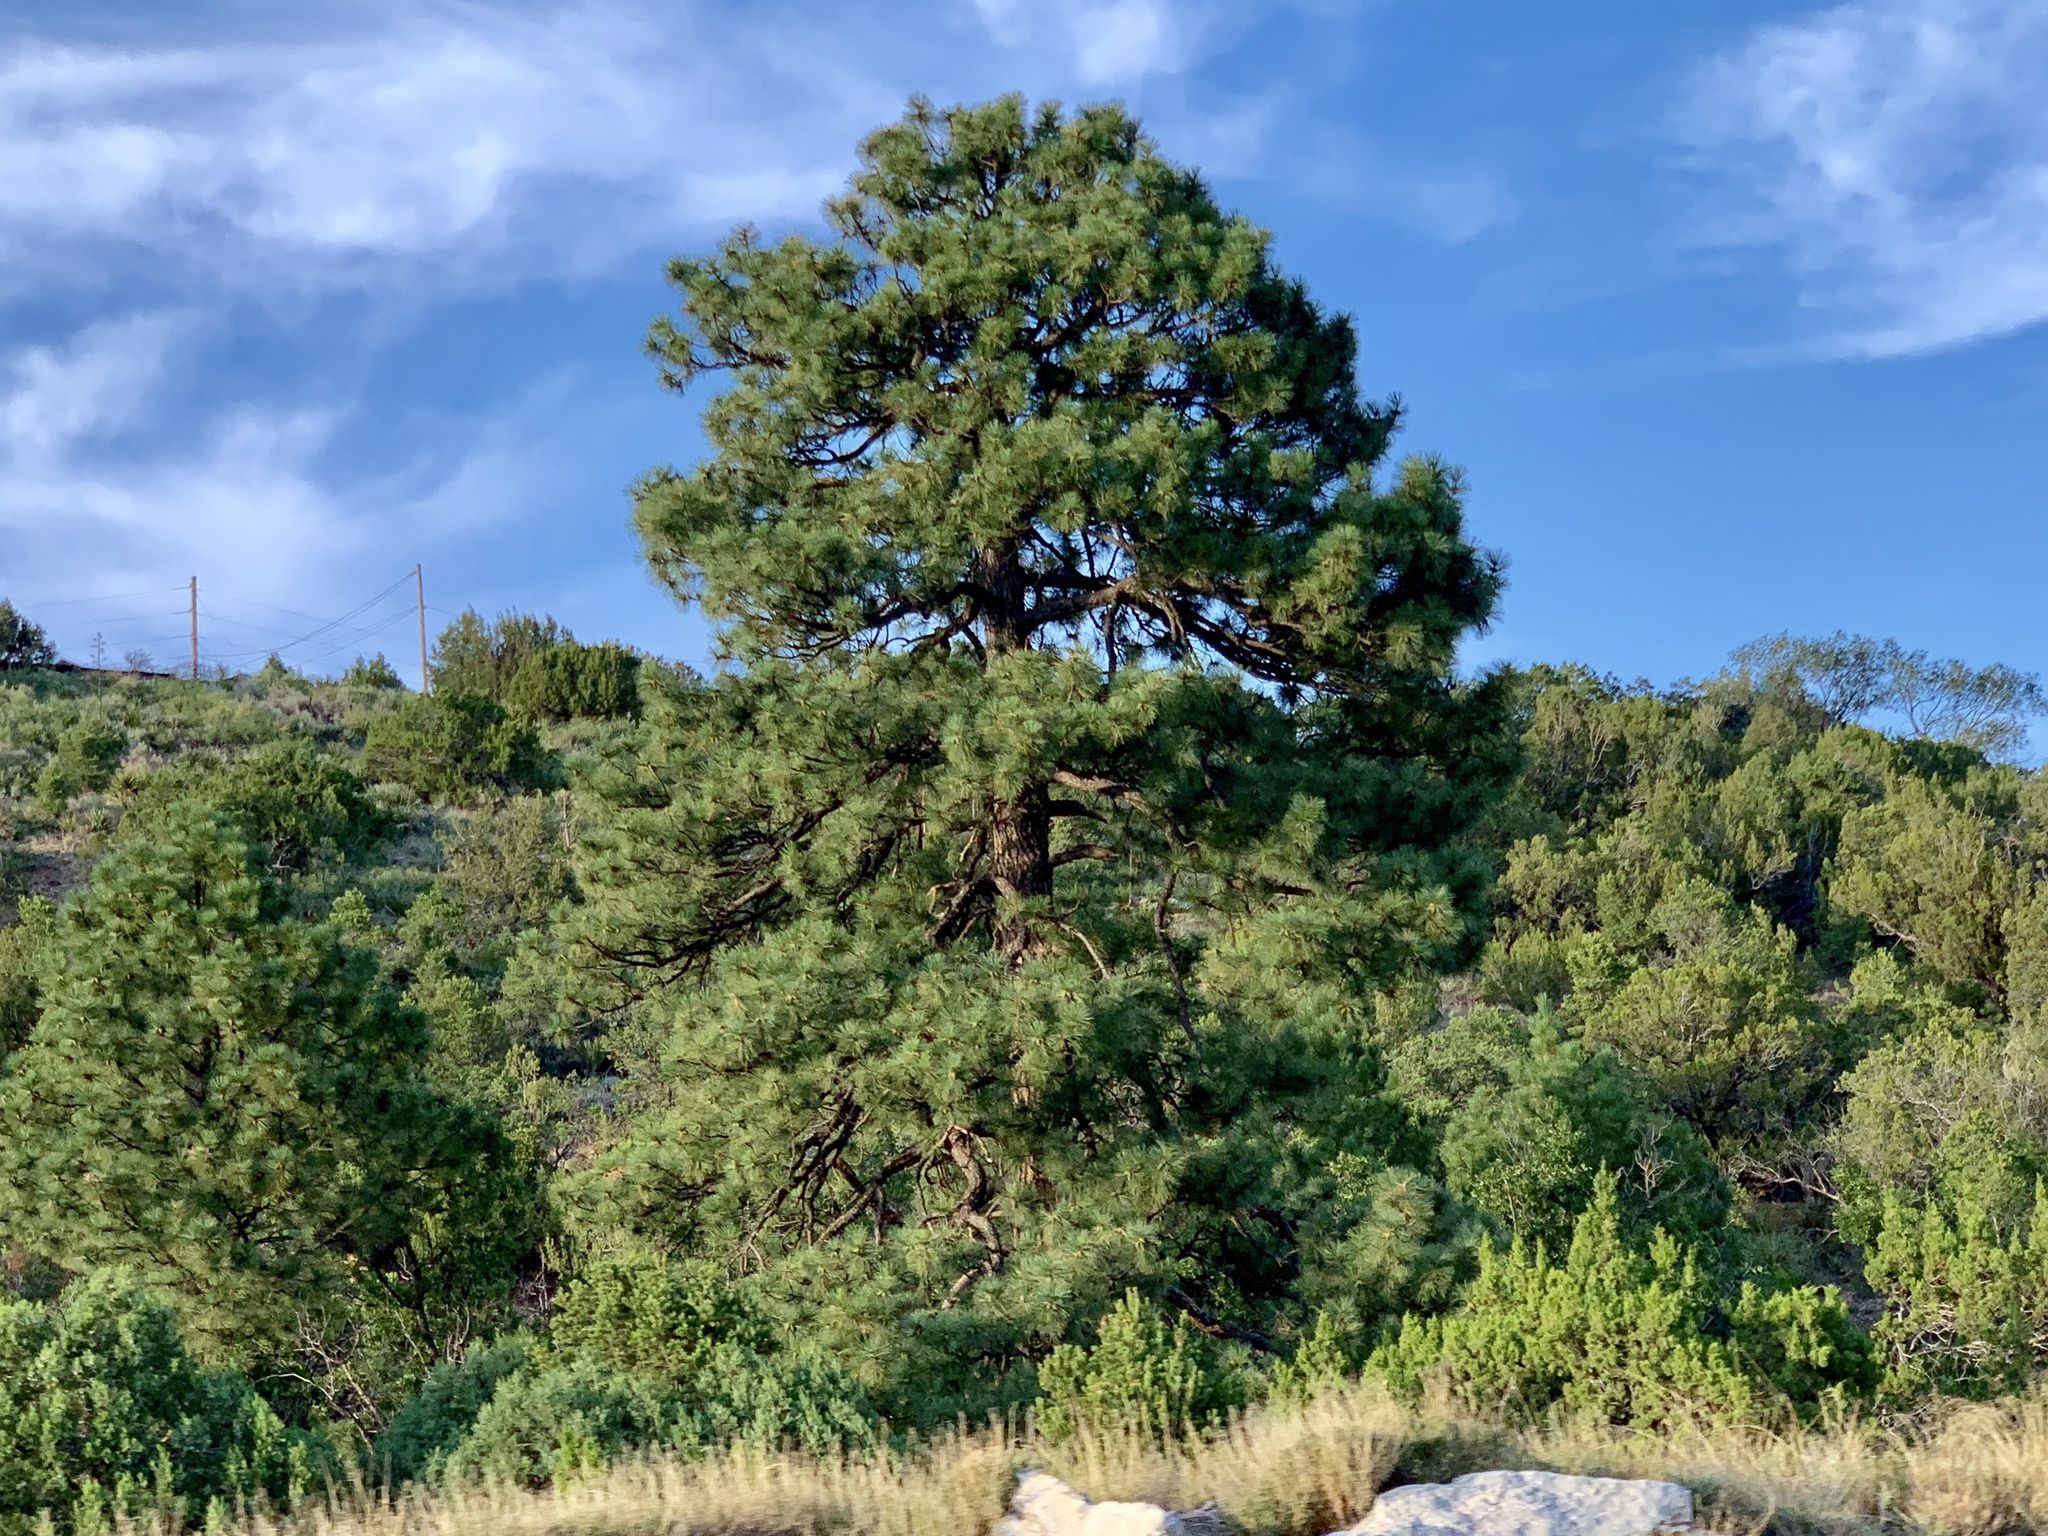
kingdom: Plantae
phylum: Tracheophyta
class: Pinopsida
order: Pinales
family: Pinaceae
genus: Pinus
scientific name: Pinus ponderosa
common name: Western yellow-pine
